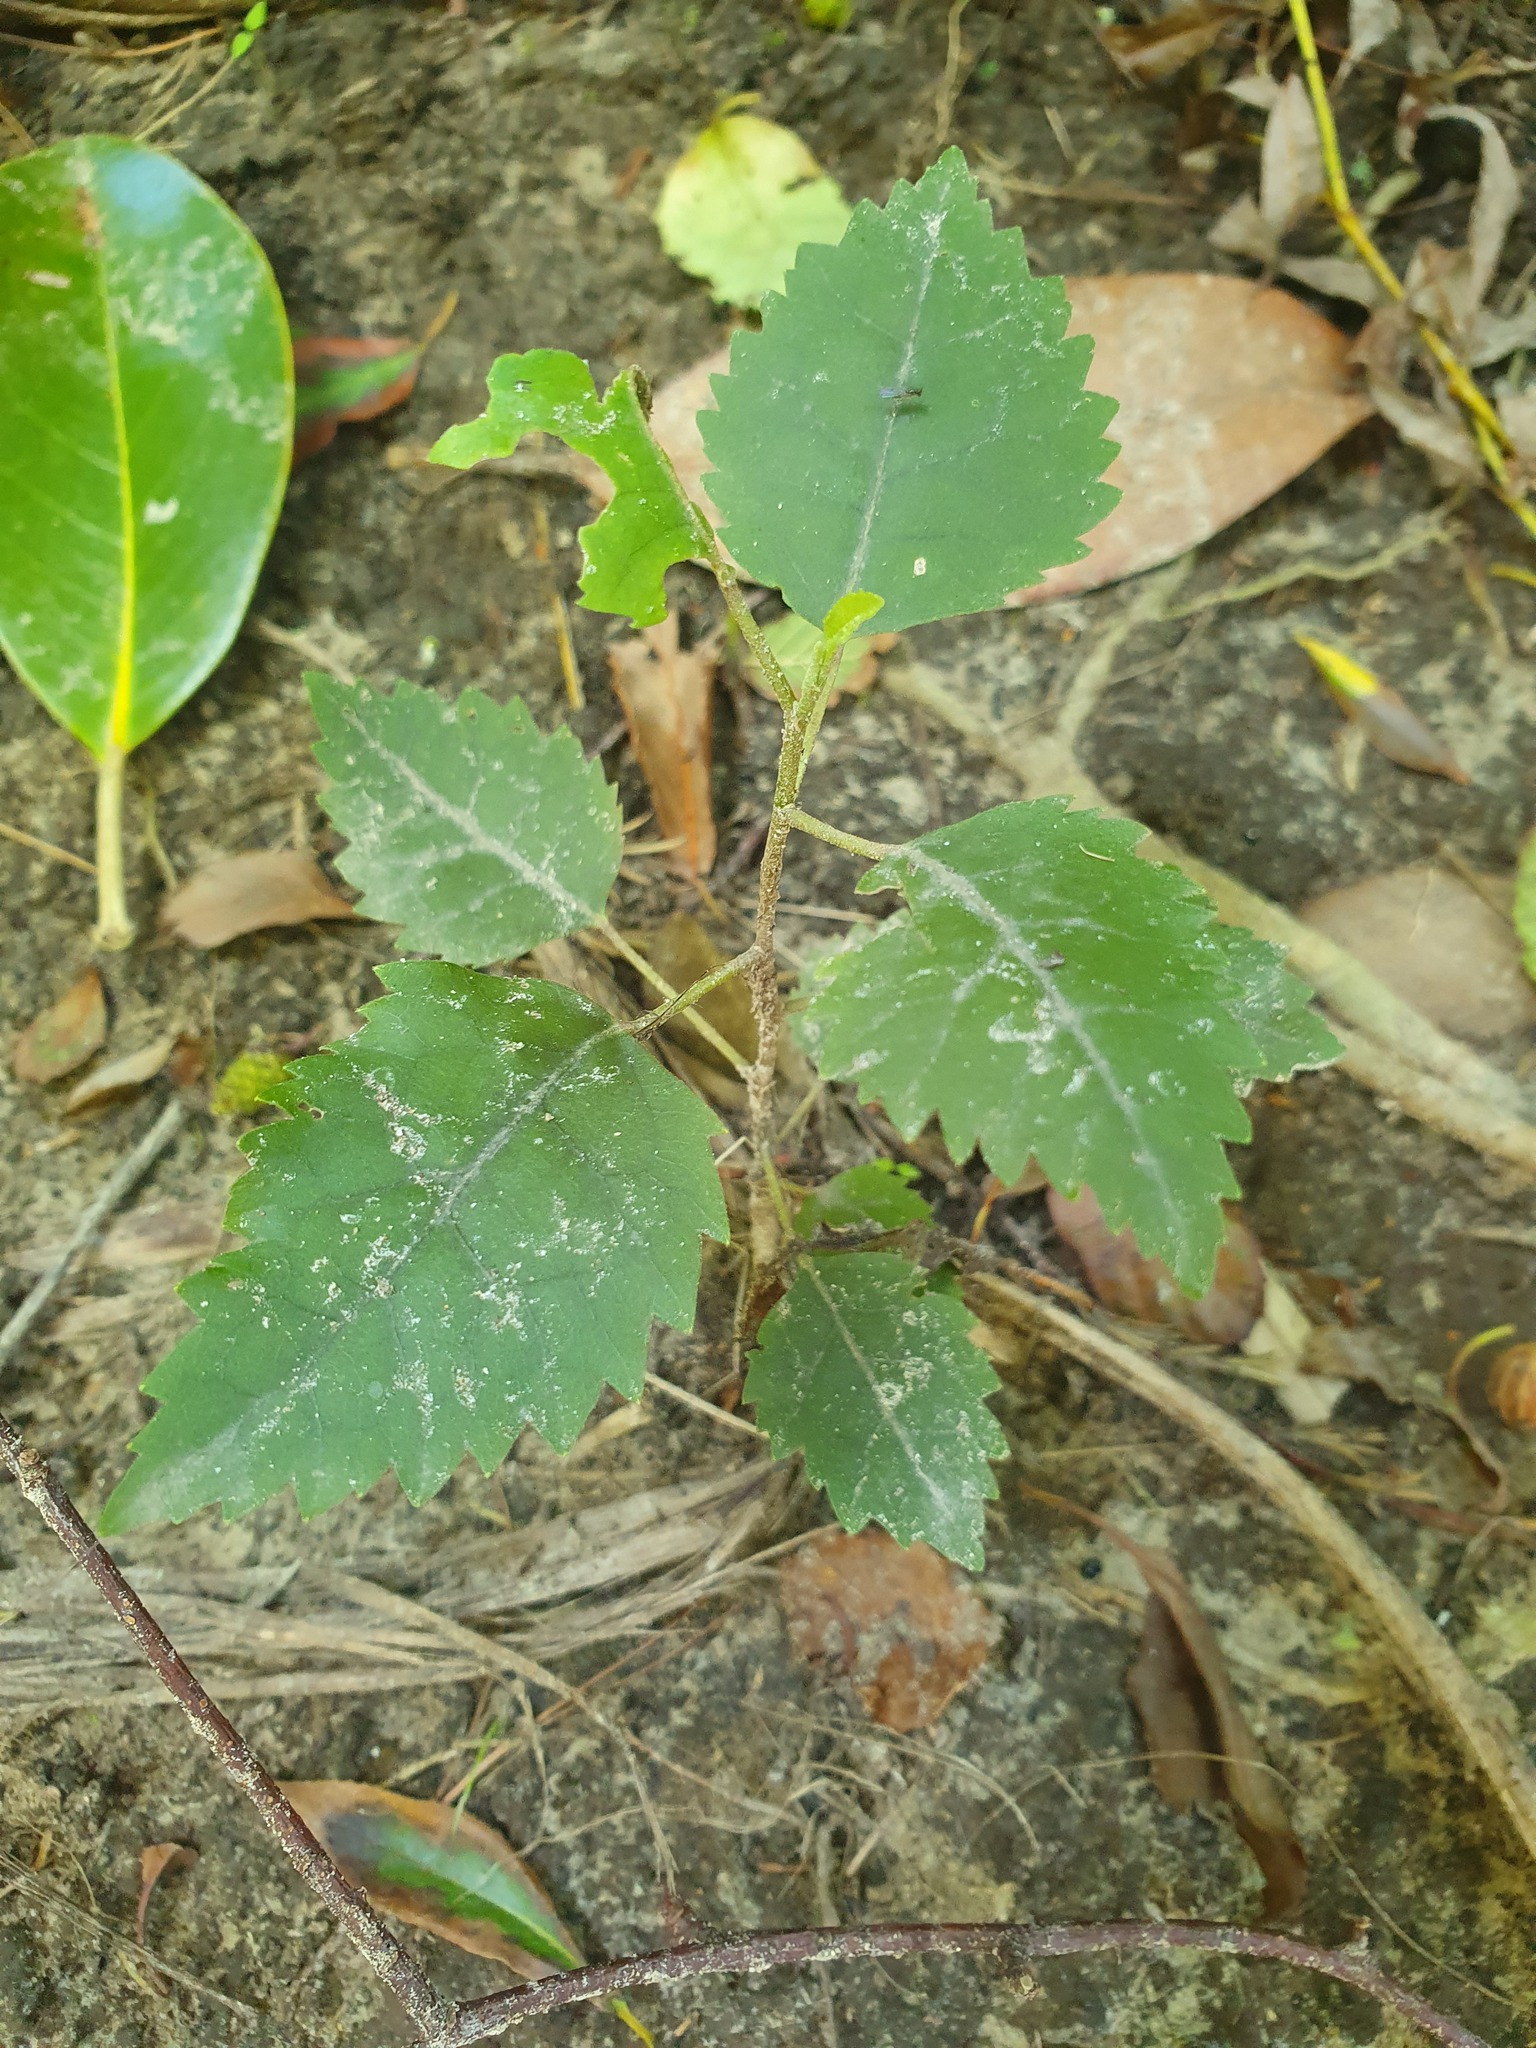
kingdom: Plantae
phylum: Tracheophyta
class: Magnoliopsida
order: Malvales
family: Malvaceae
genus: Hoheria
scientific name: Hoheria populnea
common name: Lacebark
